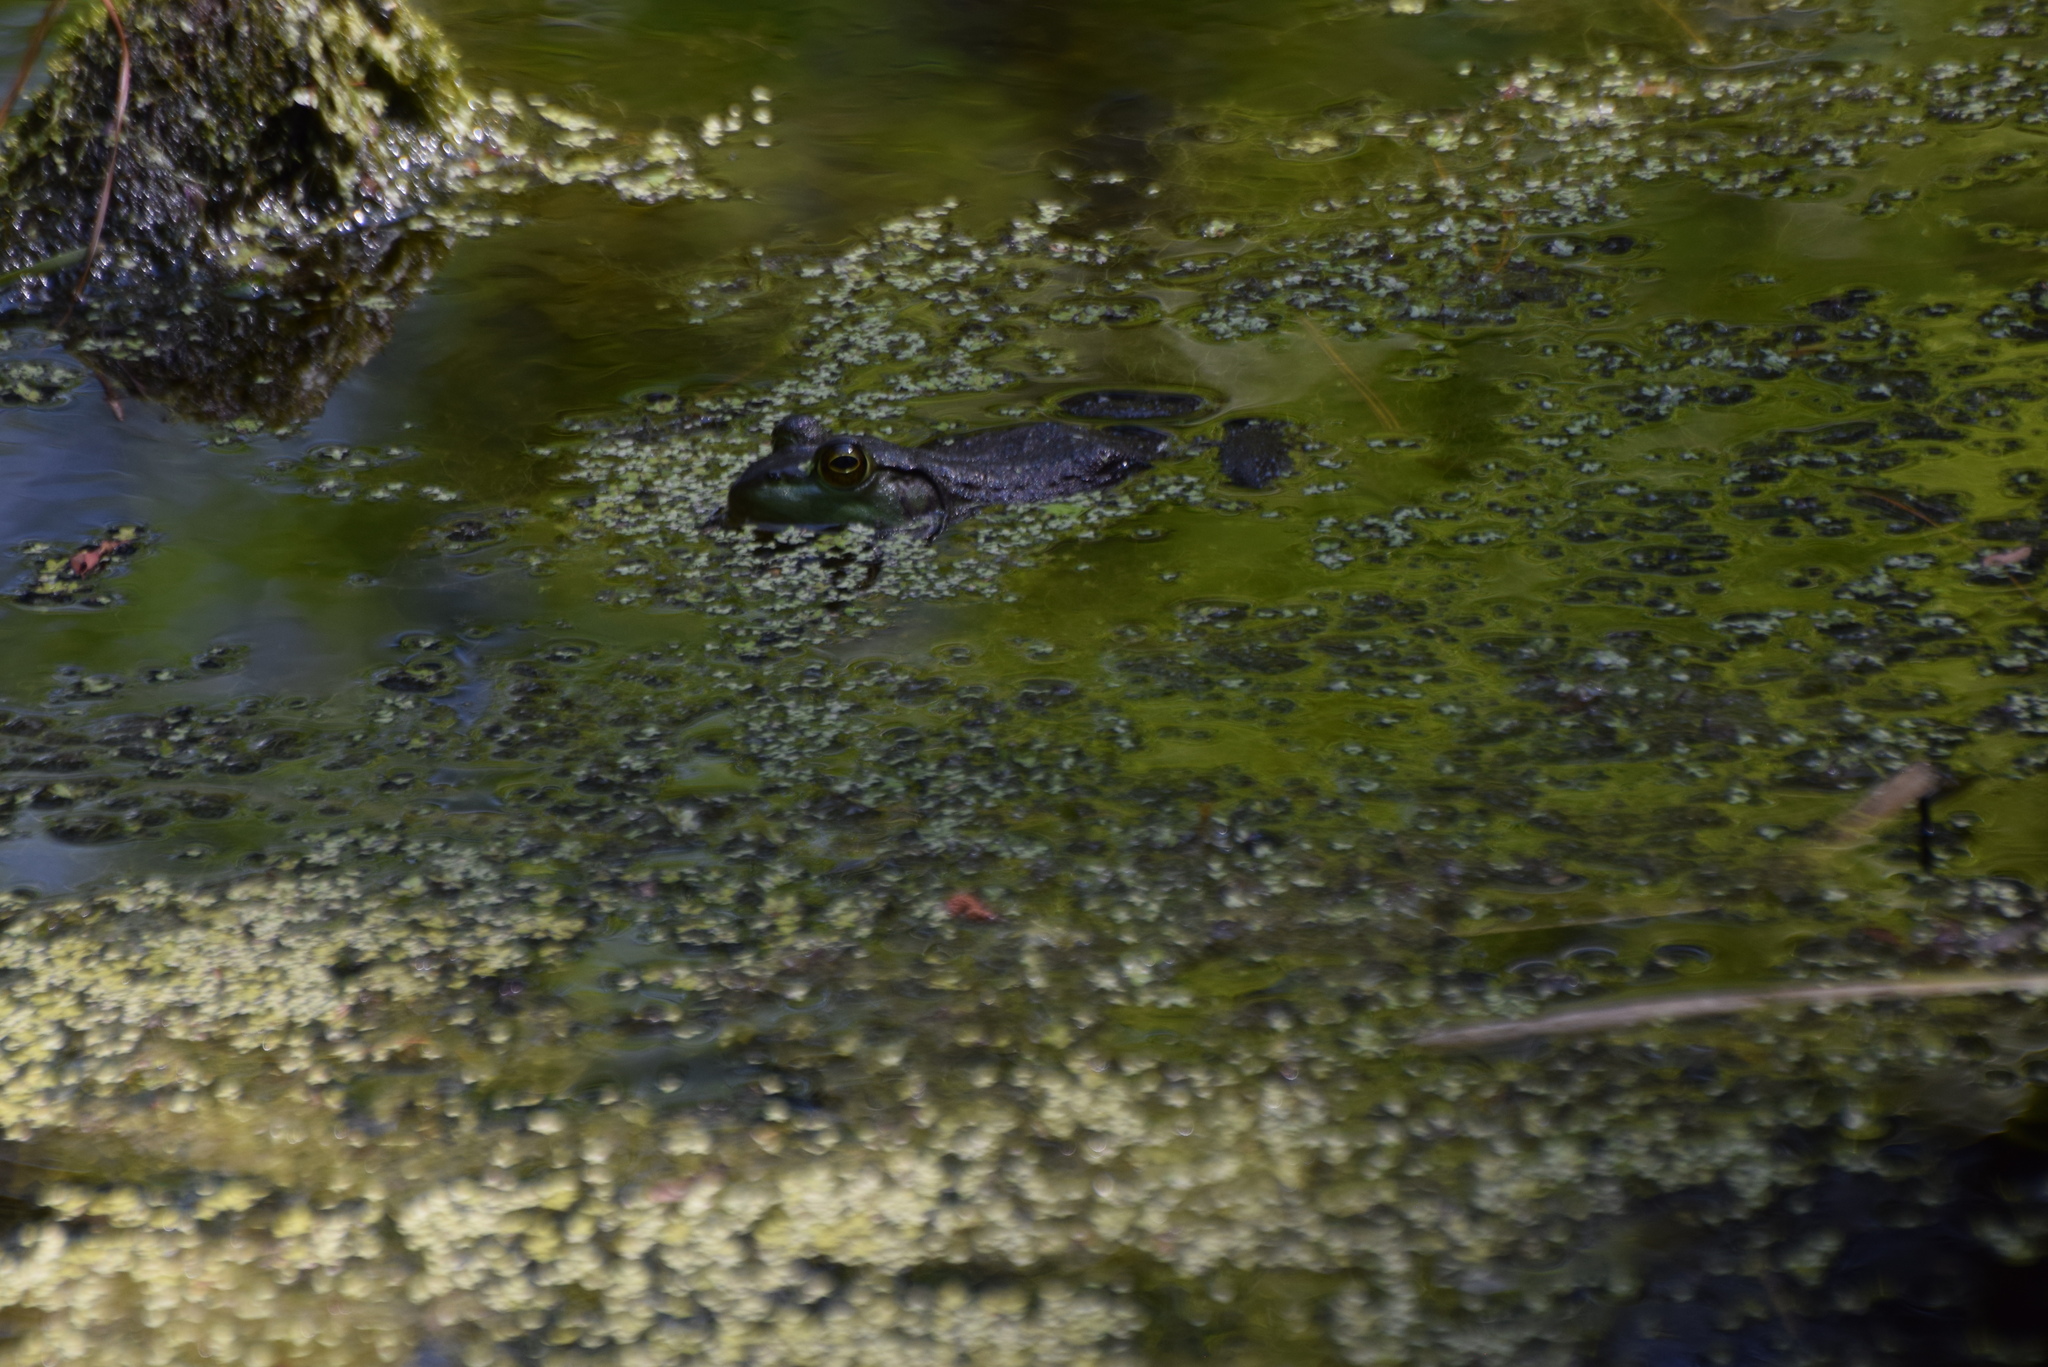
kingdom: Animalia
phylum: Chordata
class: Amphibia
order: Anura
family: Ranidae
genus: Lithobates
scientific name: Lithobates catesbeianus
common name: American bullfrog
